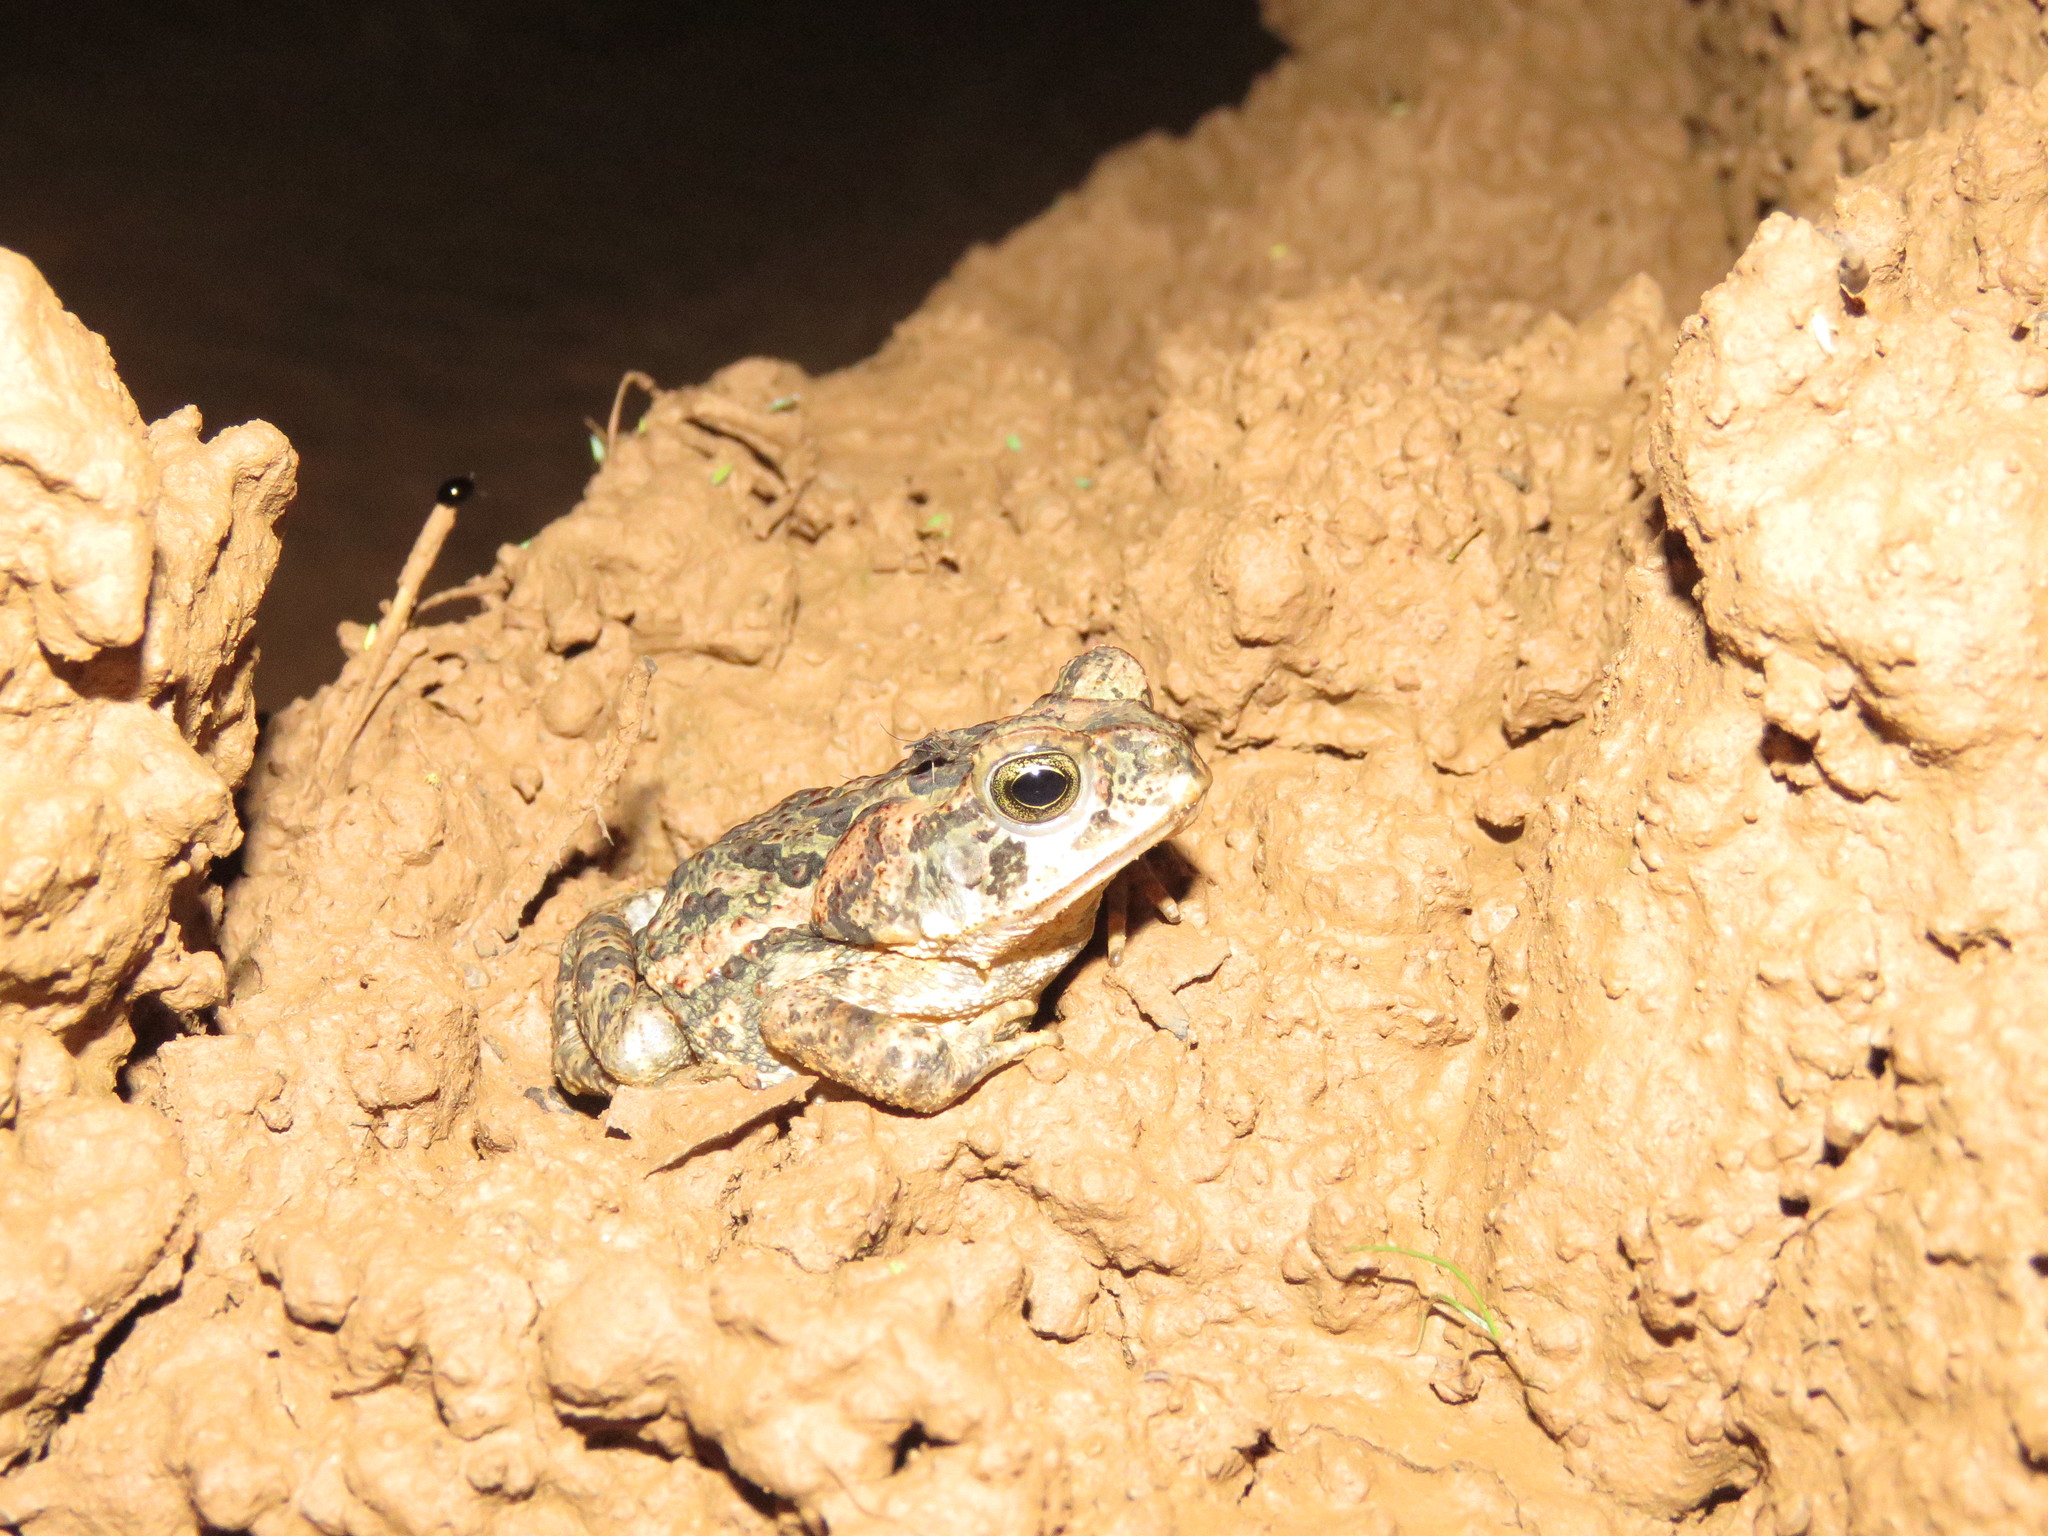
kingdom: Animalia
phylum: Chordata
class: Amphibia
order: Anura
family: Bufonidae
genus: Rhinella
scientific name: Rhinella diptycha
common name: Cope's toad
